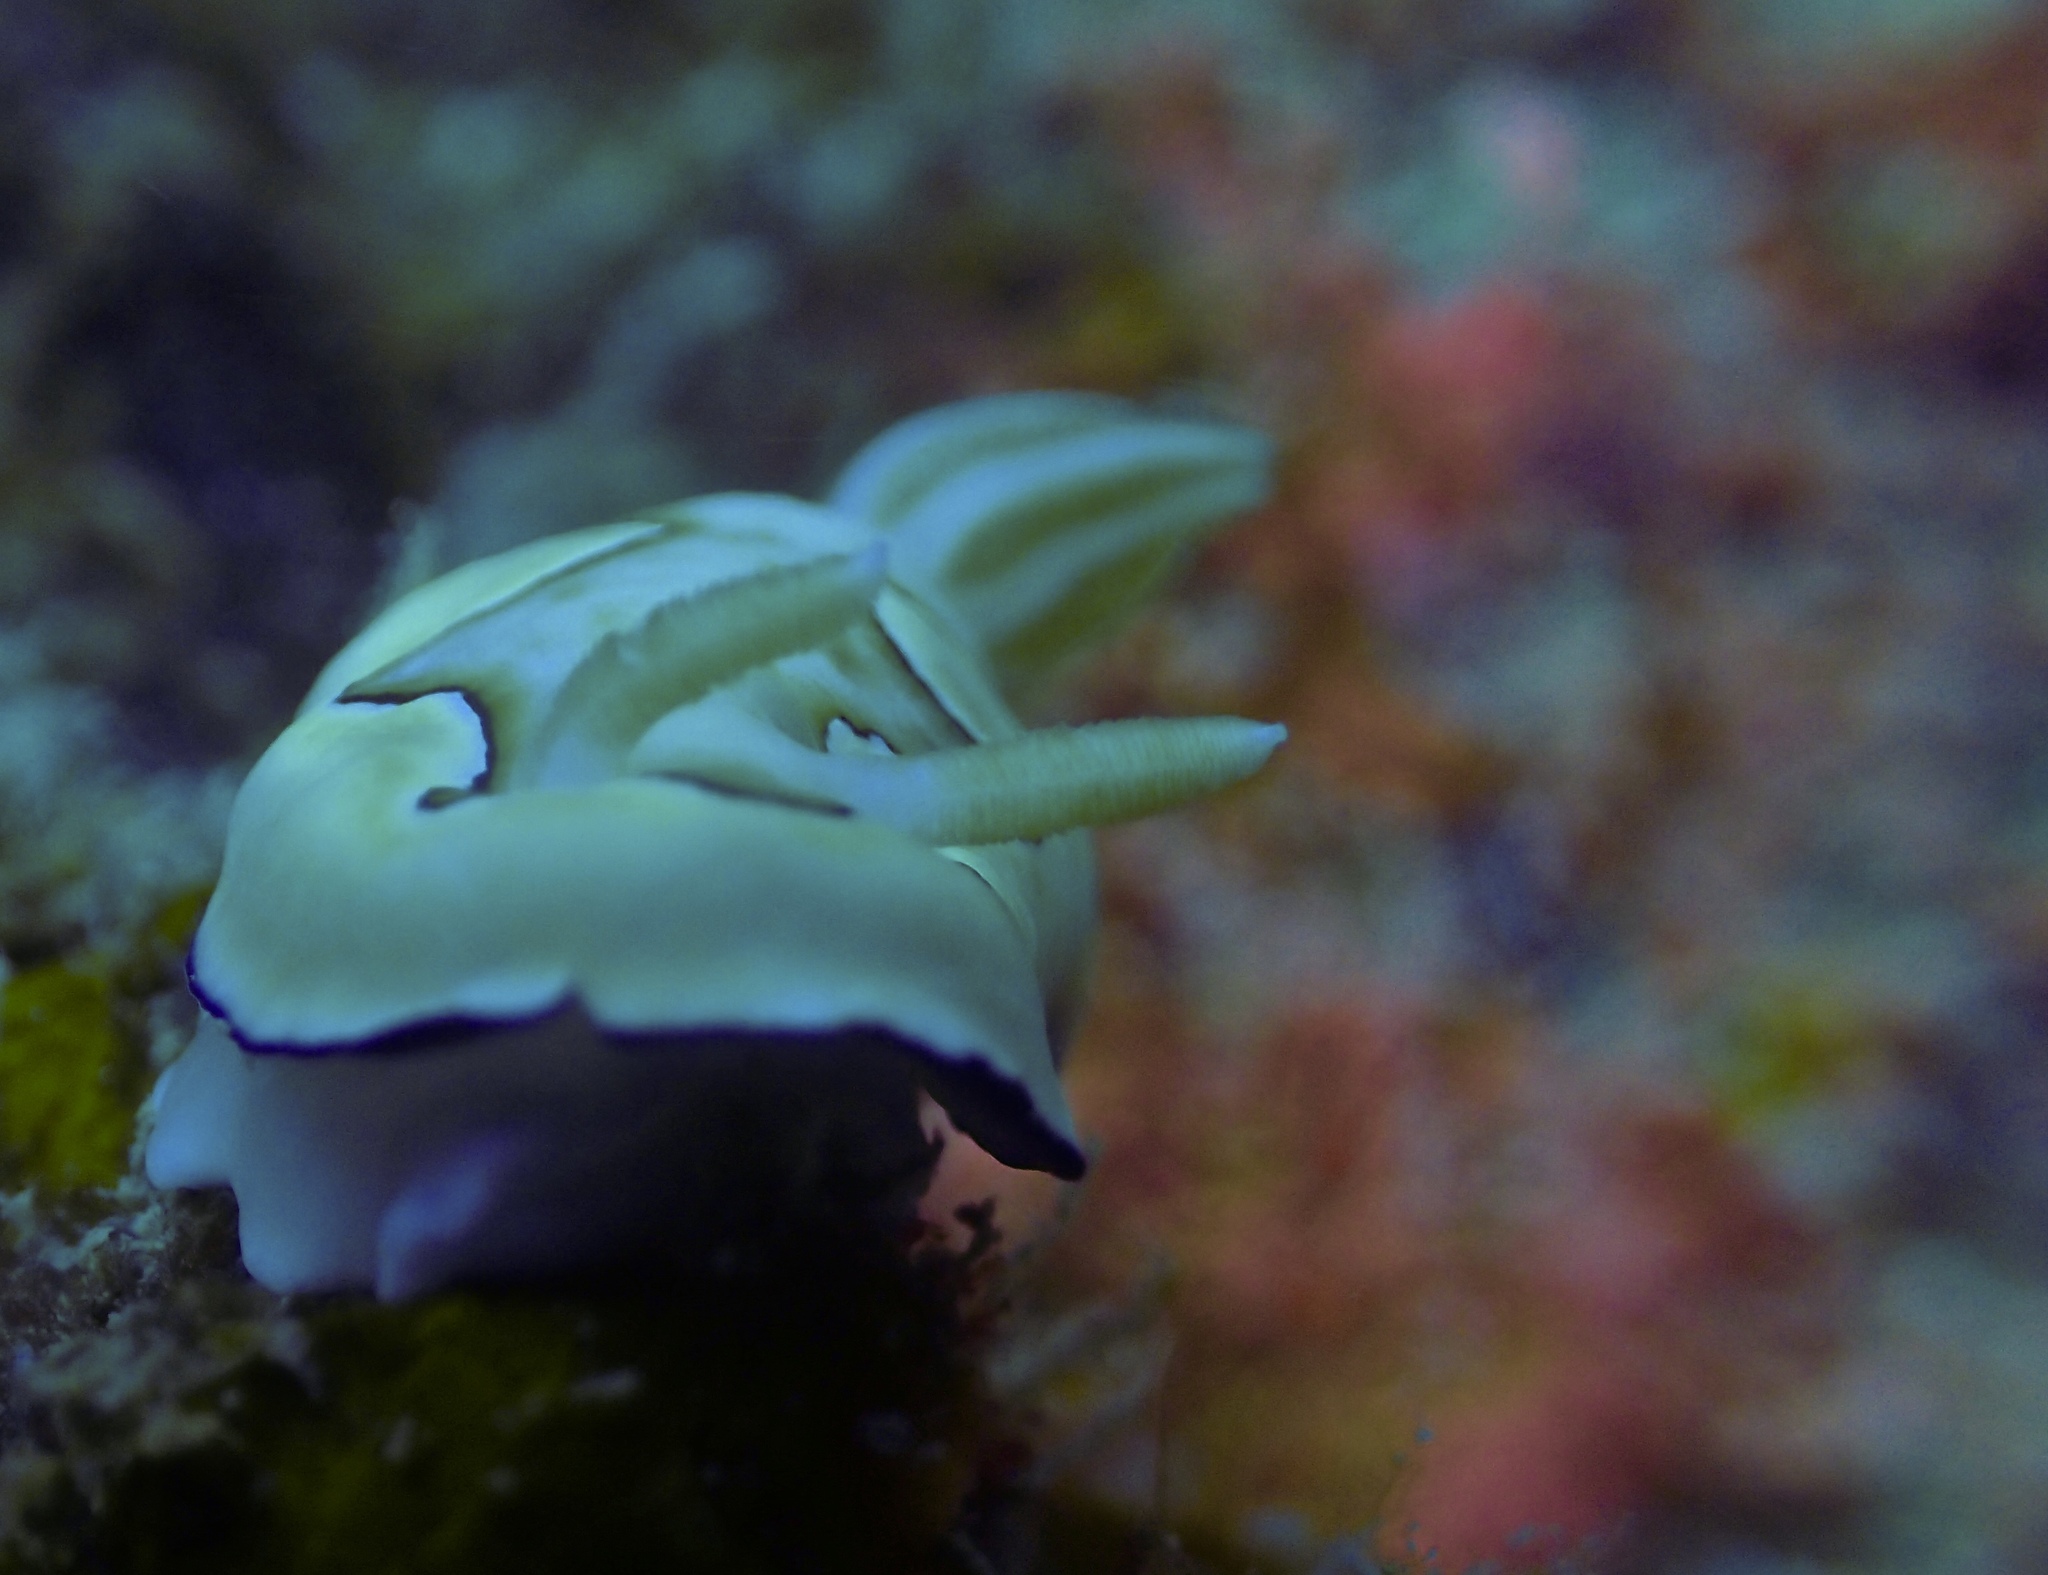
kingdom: Animalia
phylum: Mollusca
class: Gastropoda
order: Nudibranchia
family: Chromodorididae
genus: Goniobranchus
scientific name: Goniobranchus coi
